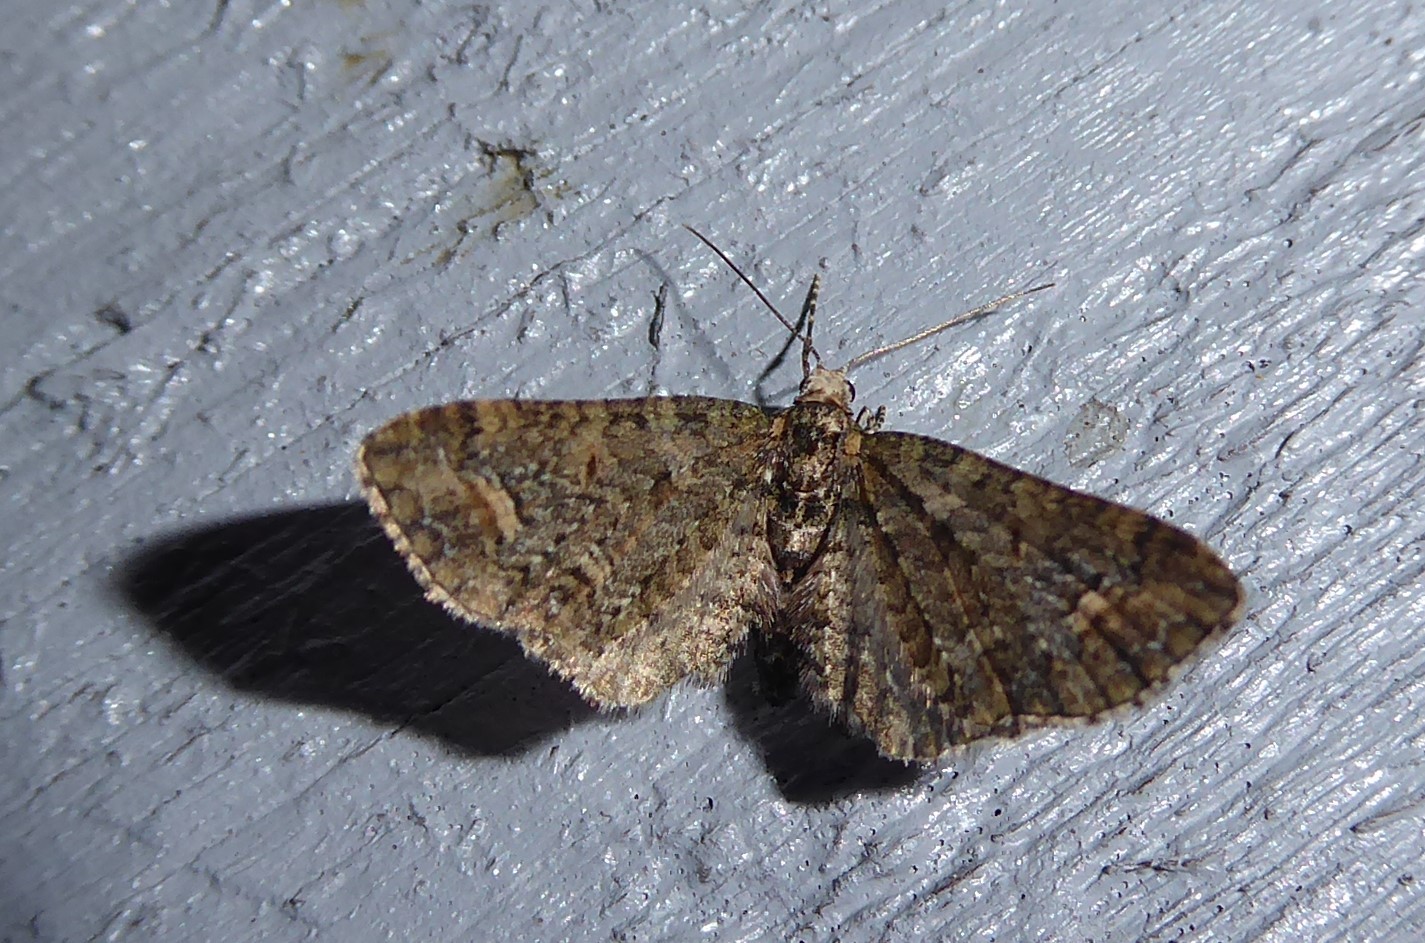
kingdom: Animalia
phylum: Arthropoda
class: Insecta
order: Lepidoptera
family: Geometridae
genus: Idaea
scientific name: Idaea mutanda
